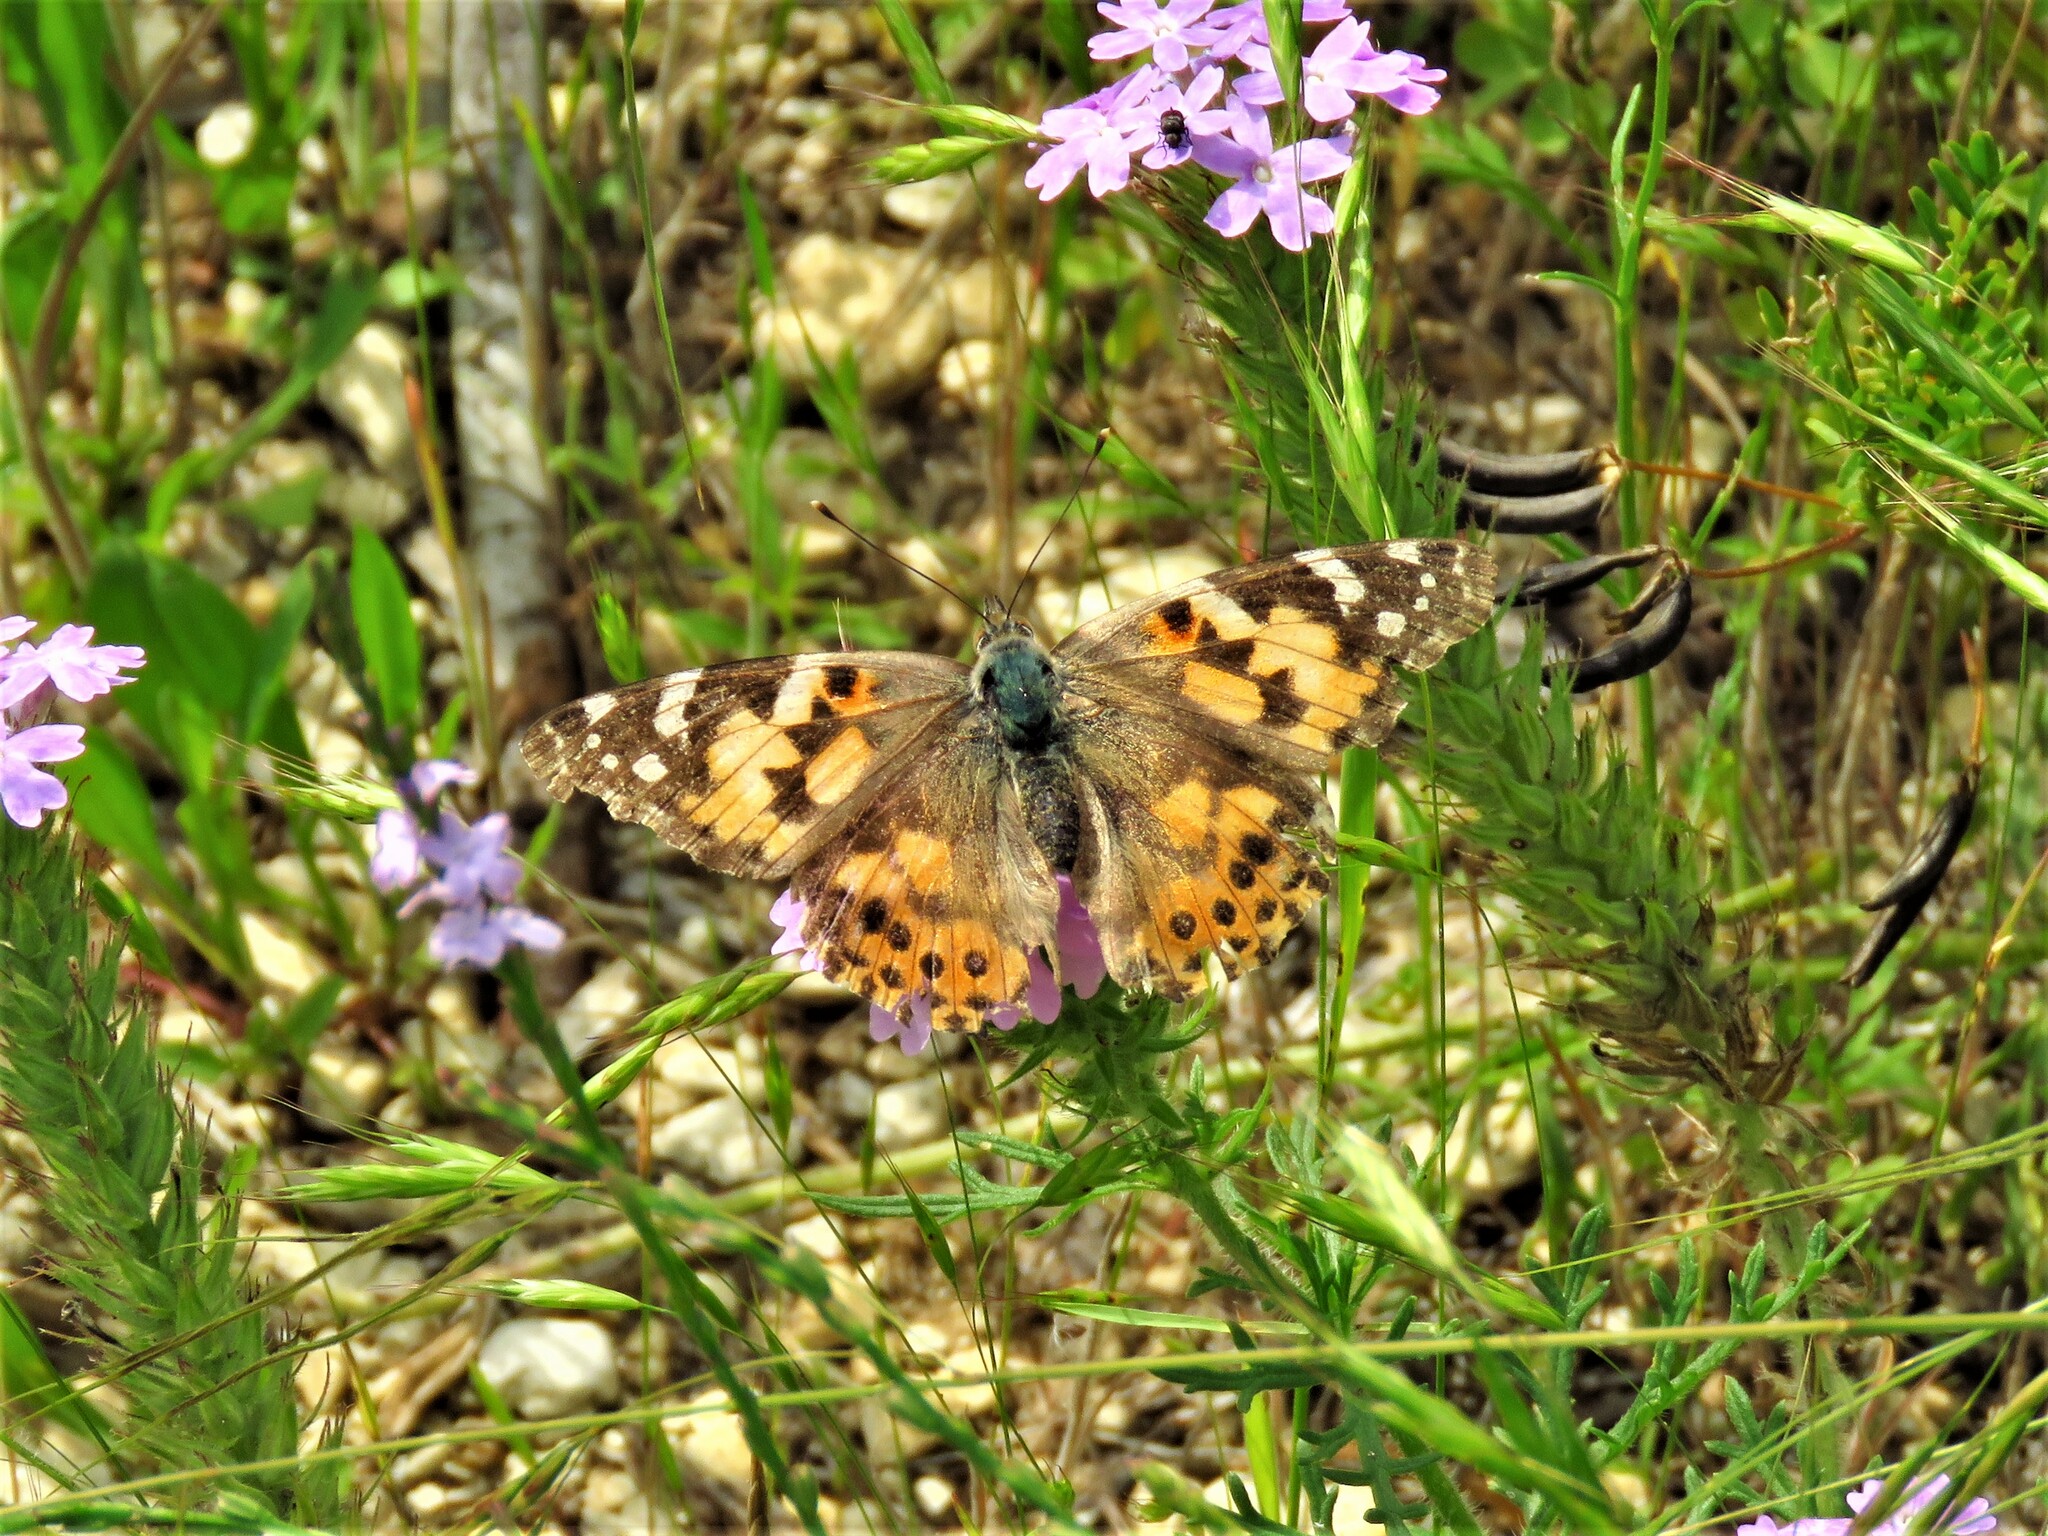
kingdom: Animalia
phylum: Arthropoda
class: Insecta
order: Lepidoptera
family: Nymphalidae
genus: Vanessa
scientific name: Vanessa cardui
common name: Painted lady
